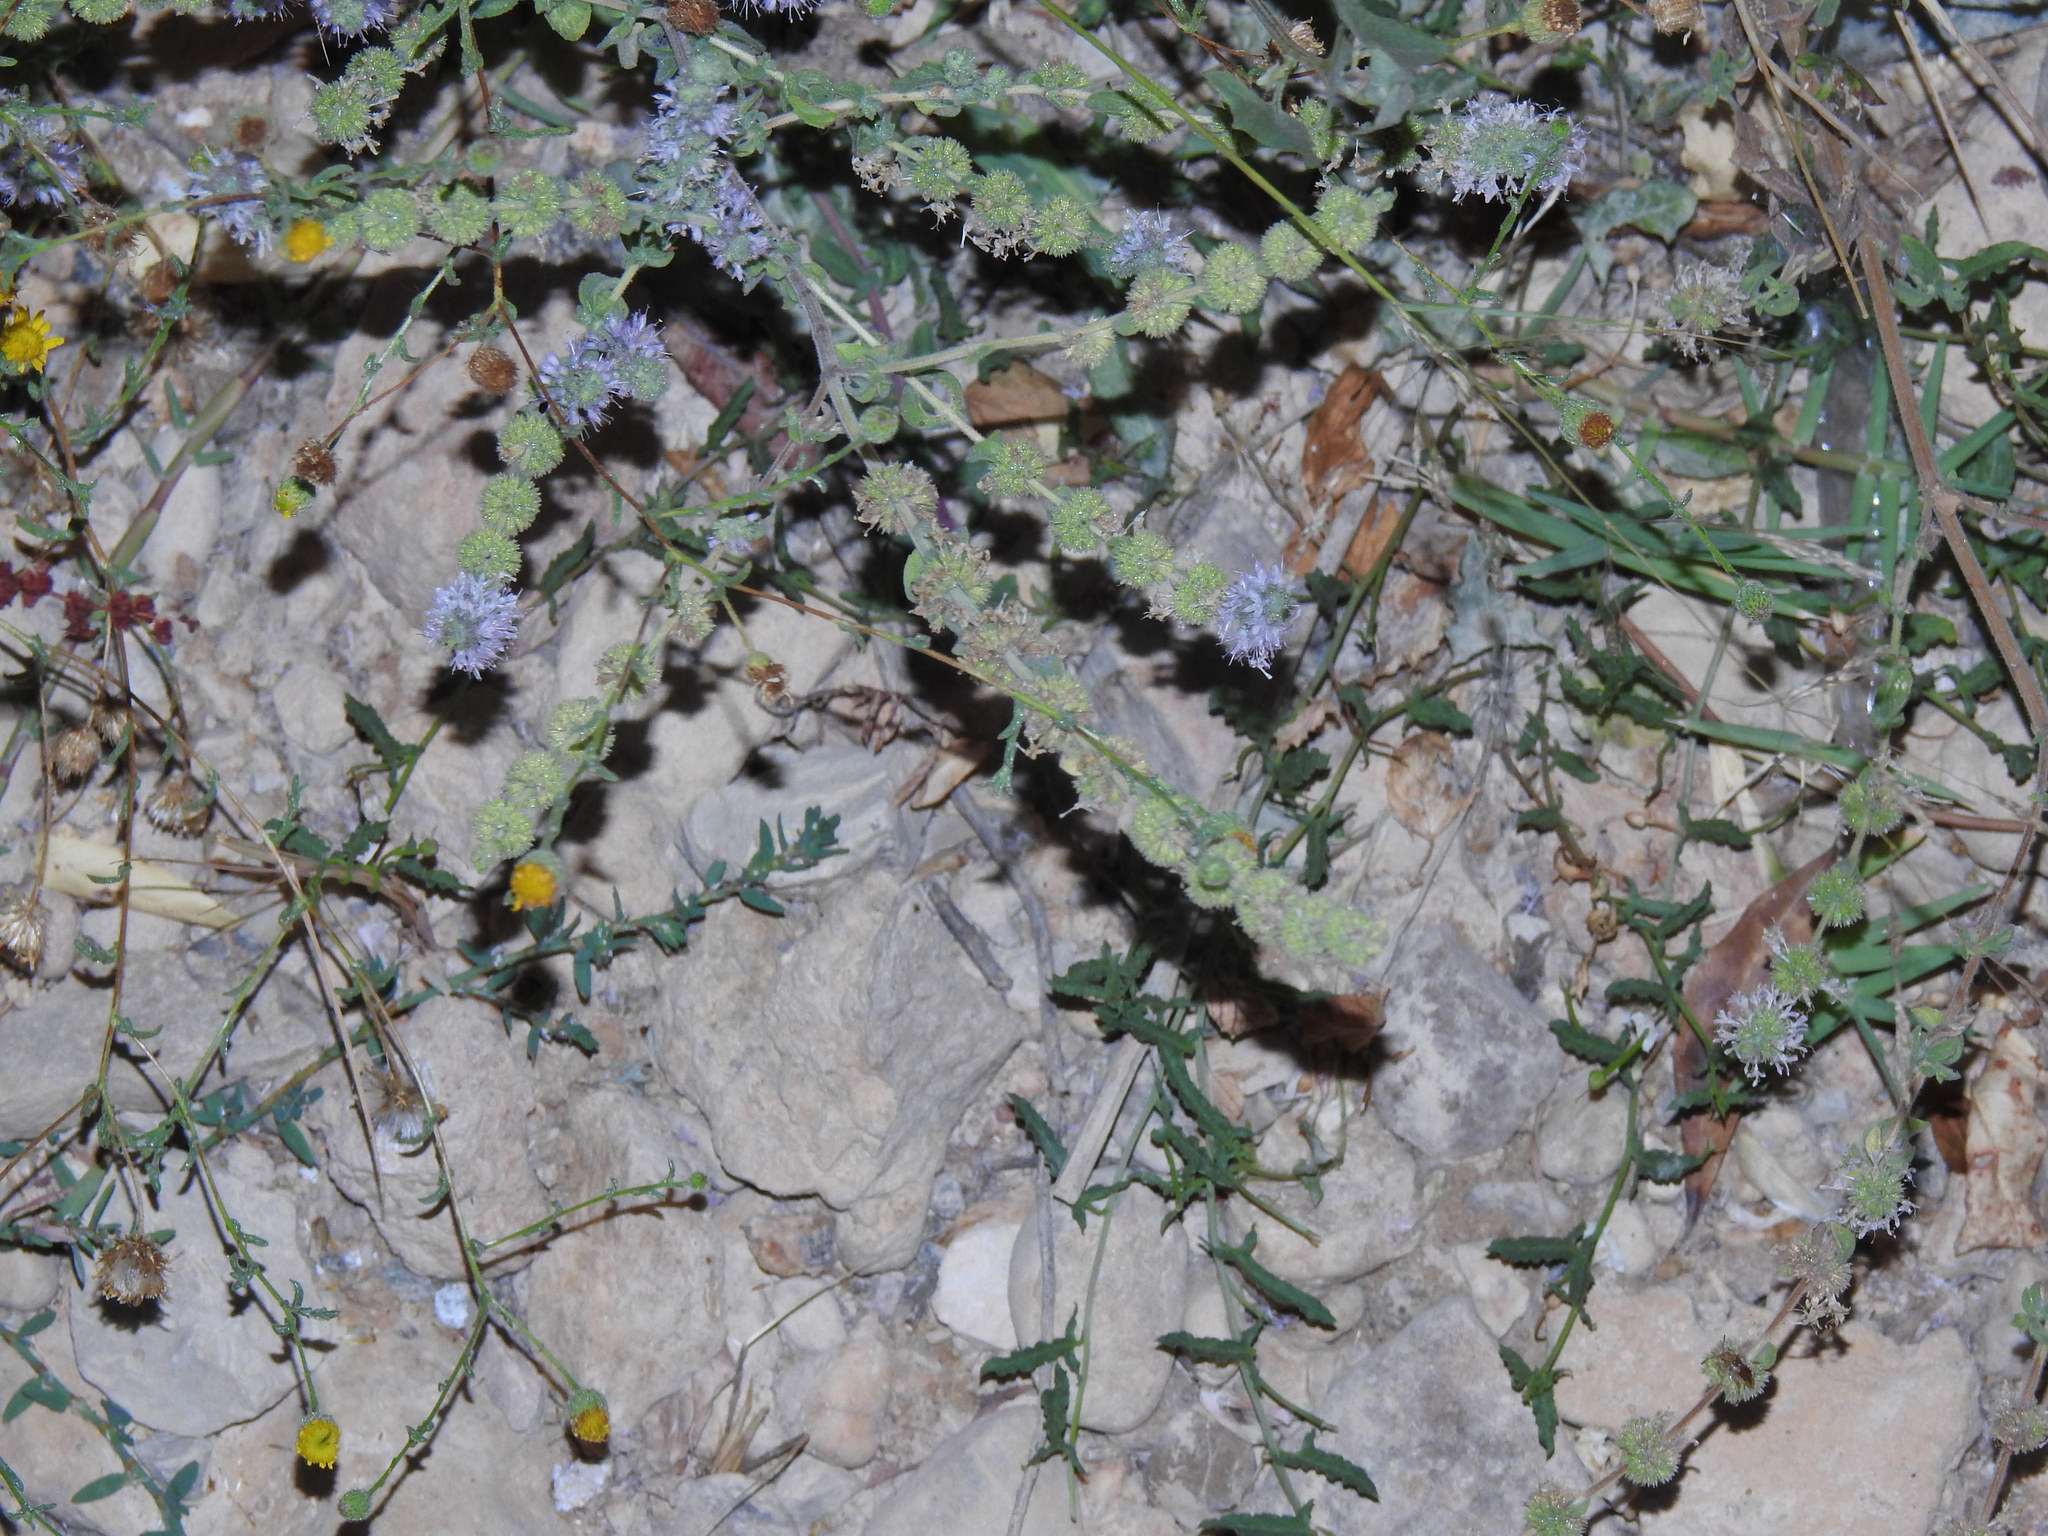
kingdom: Plantae
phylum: Tracheophyta
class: Magnoliopsida
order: Lamiales
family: Lamiaceae
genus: Mentha
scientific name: Mentha pulegium
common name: Pennyroyal
